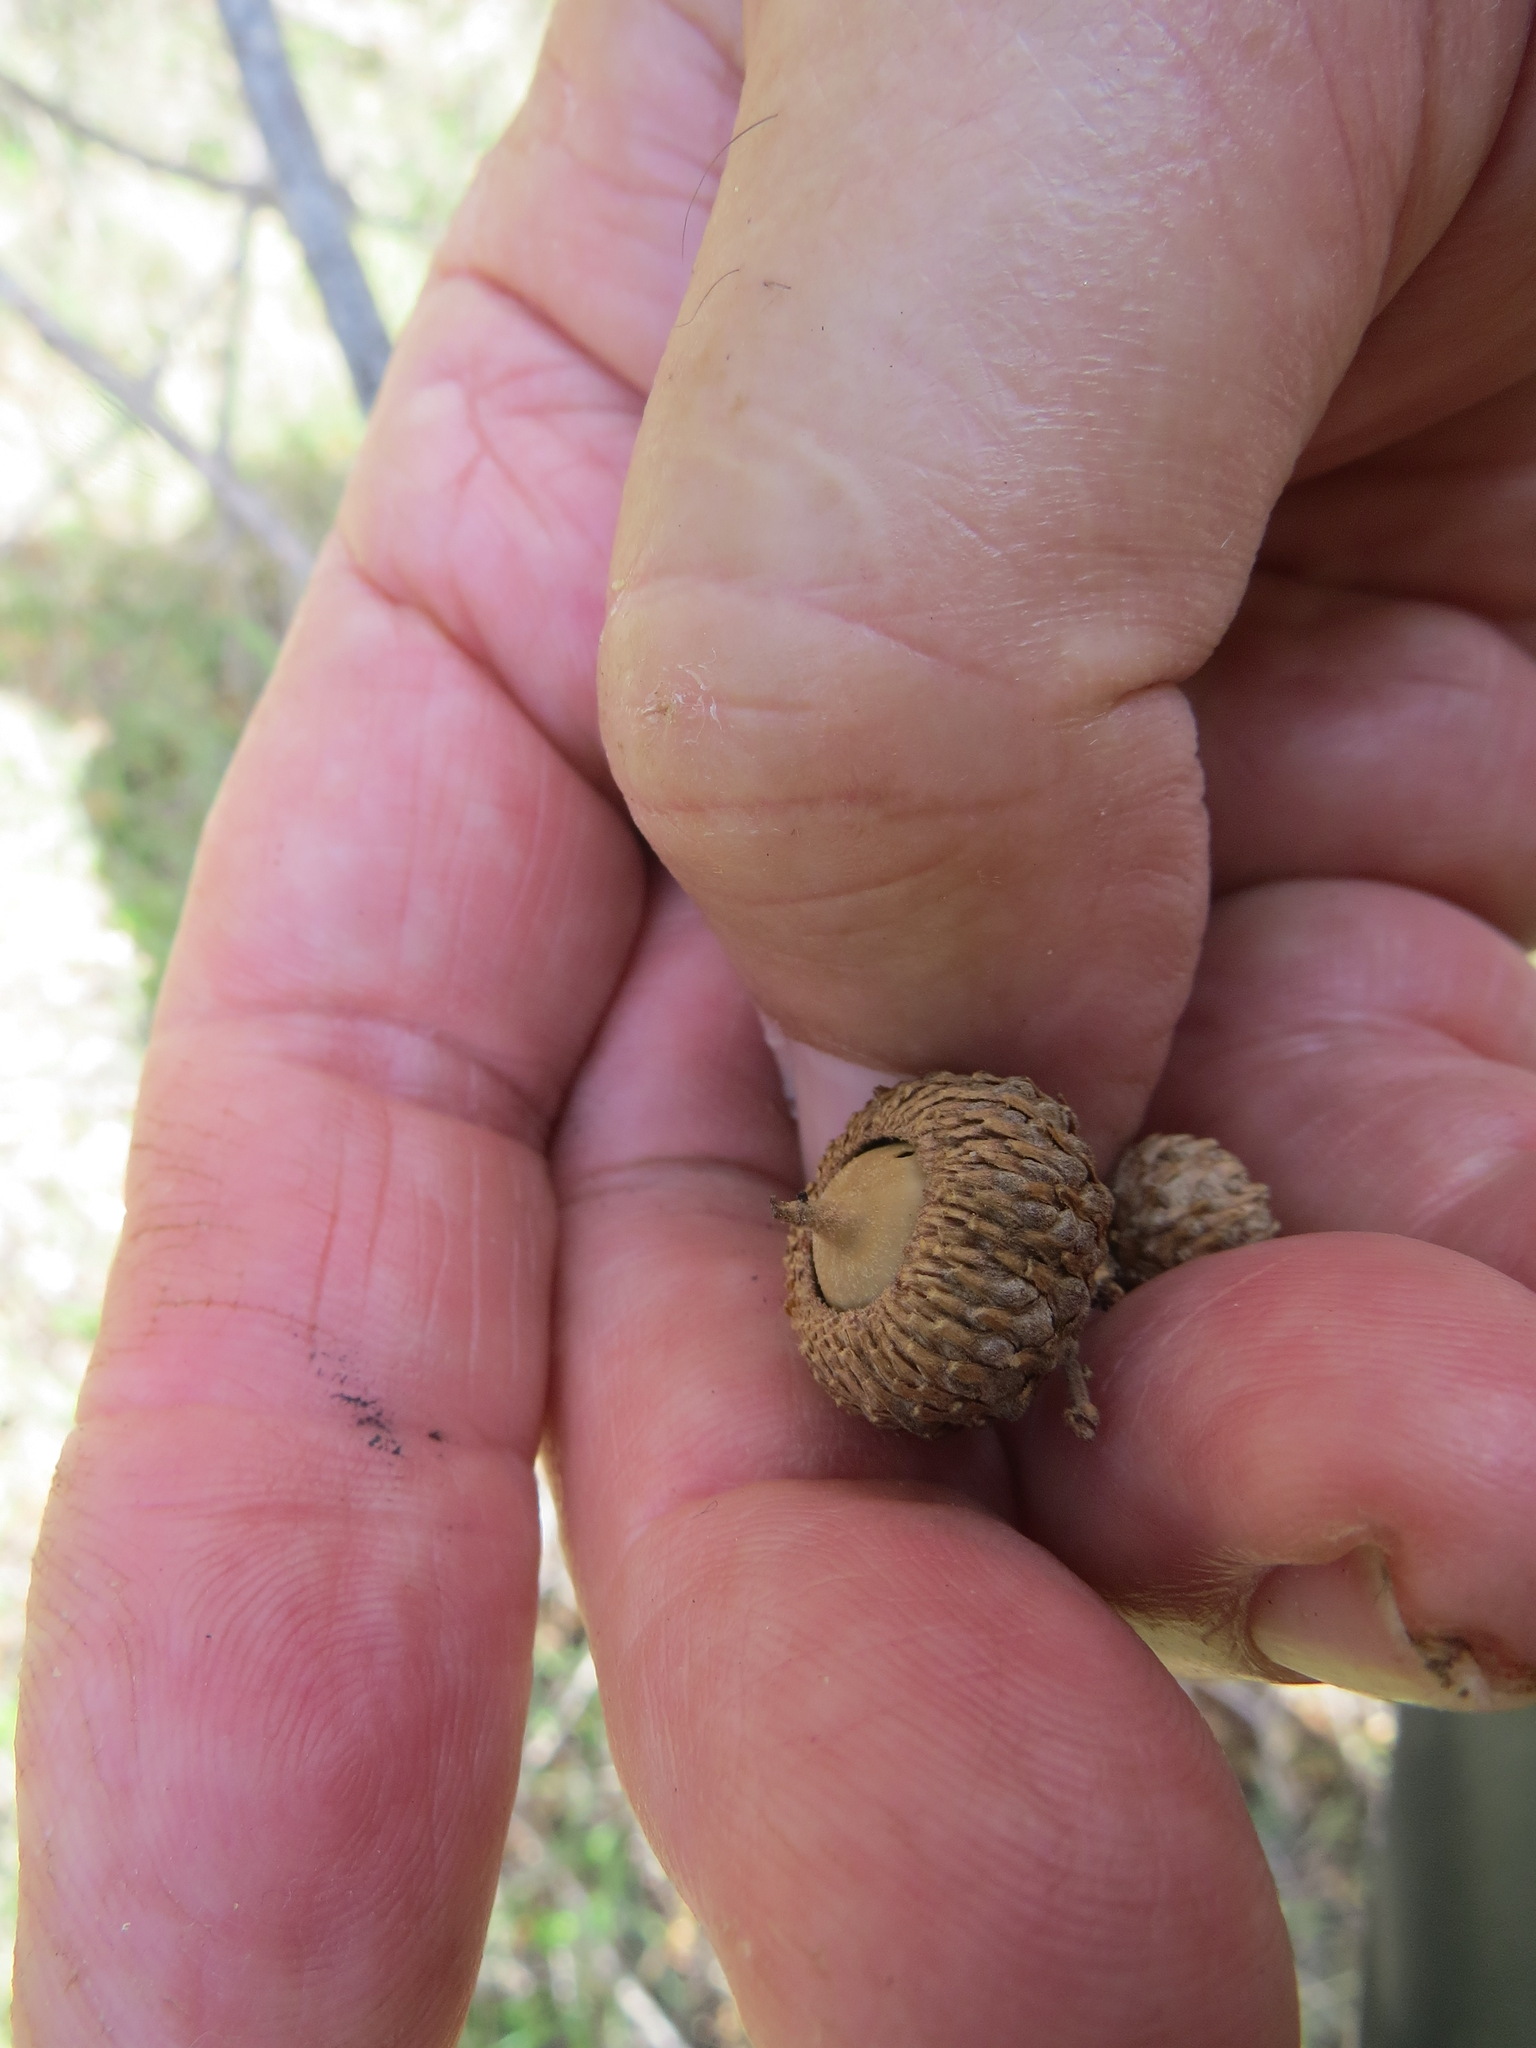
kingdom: Plantae
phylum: Tracheophyta
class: Magnoliopsida
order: Fagales
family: Fagaceae
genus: Quercus
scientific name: Quercus
